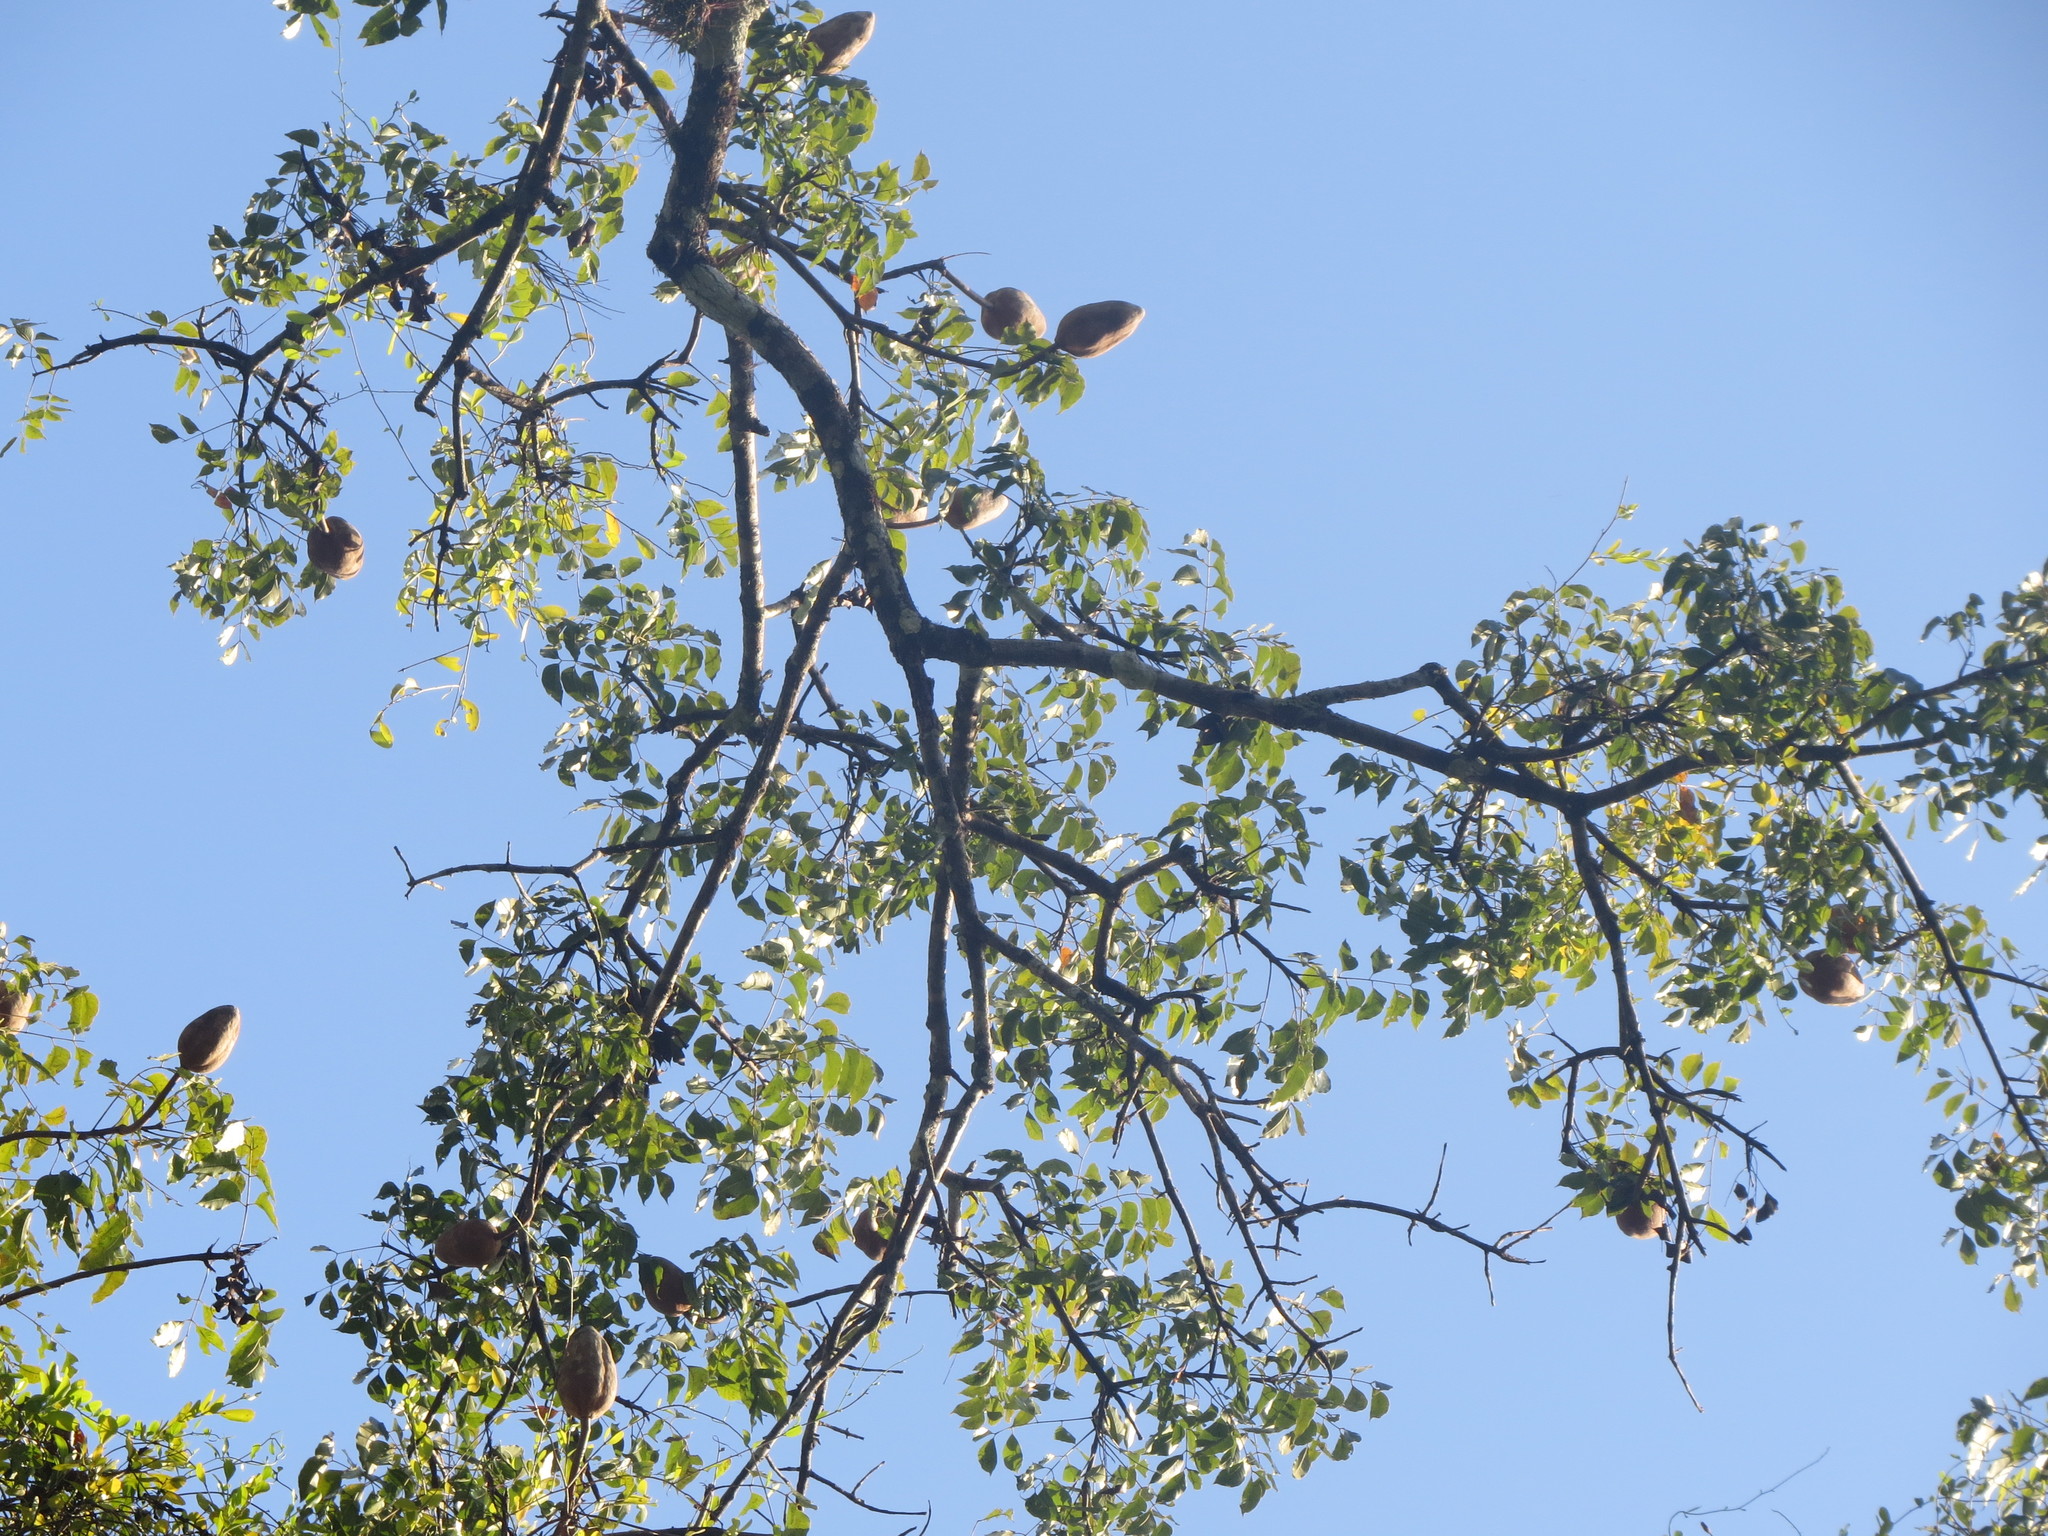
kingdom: Plantae
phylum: Tracheophyta
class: Magnoliopsida
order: Sapindales
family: Meliaceae
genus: Swietenia
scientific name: Swietenia macrophylla
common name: Honduras mahogany
